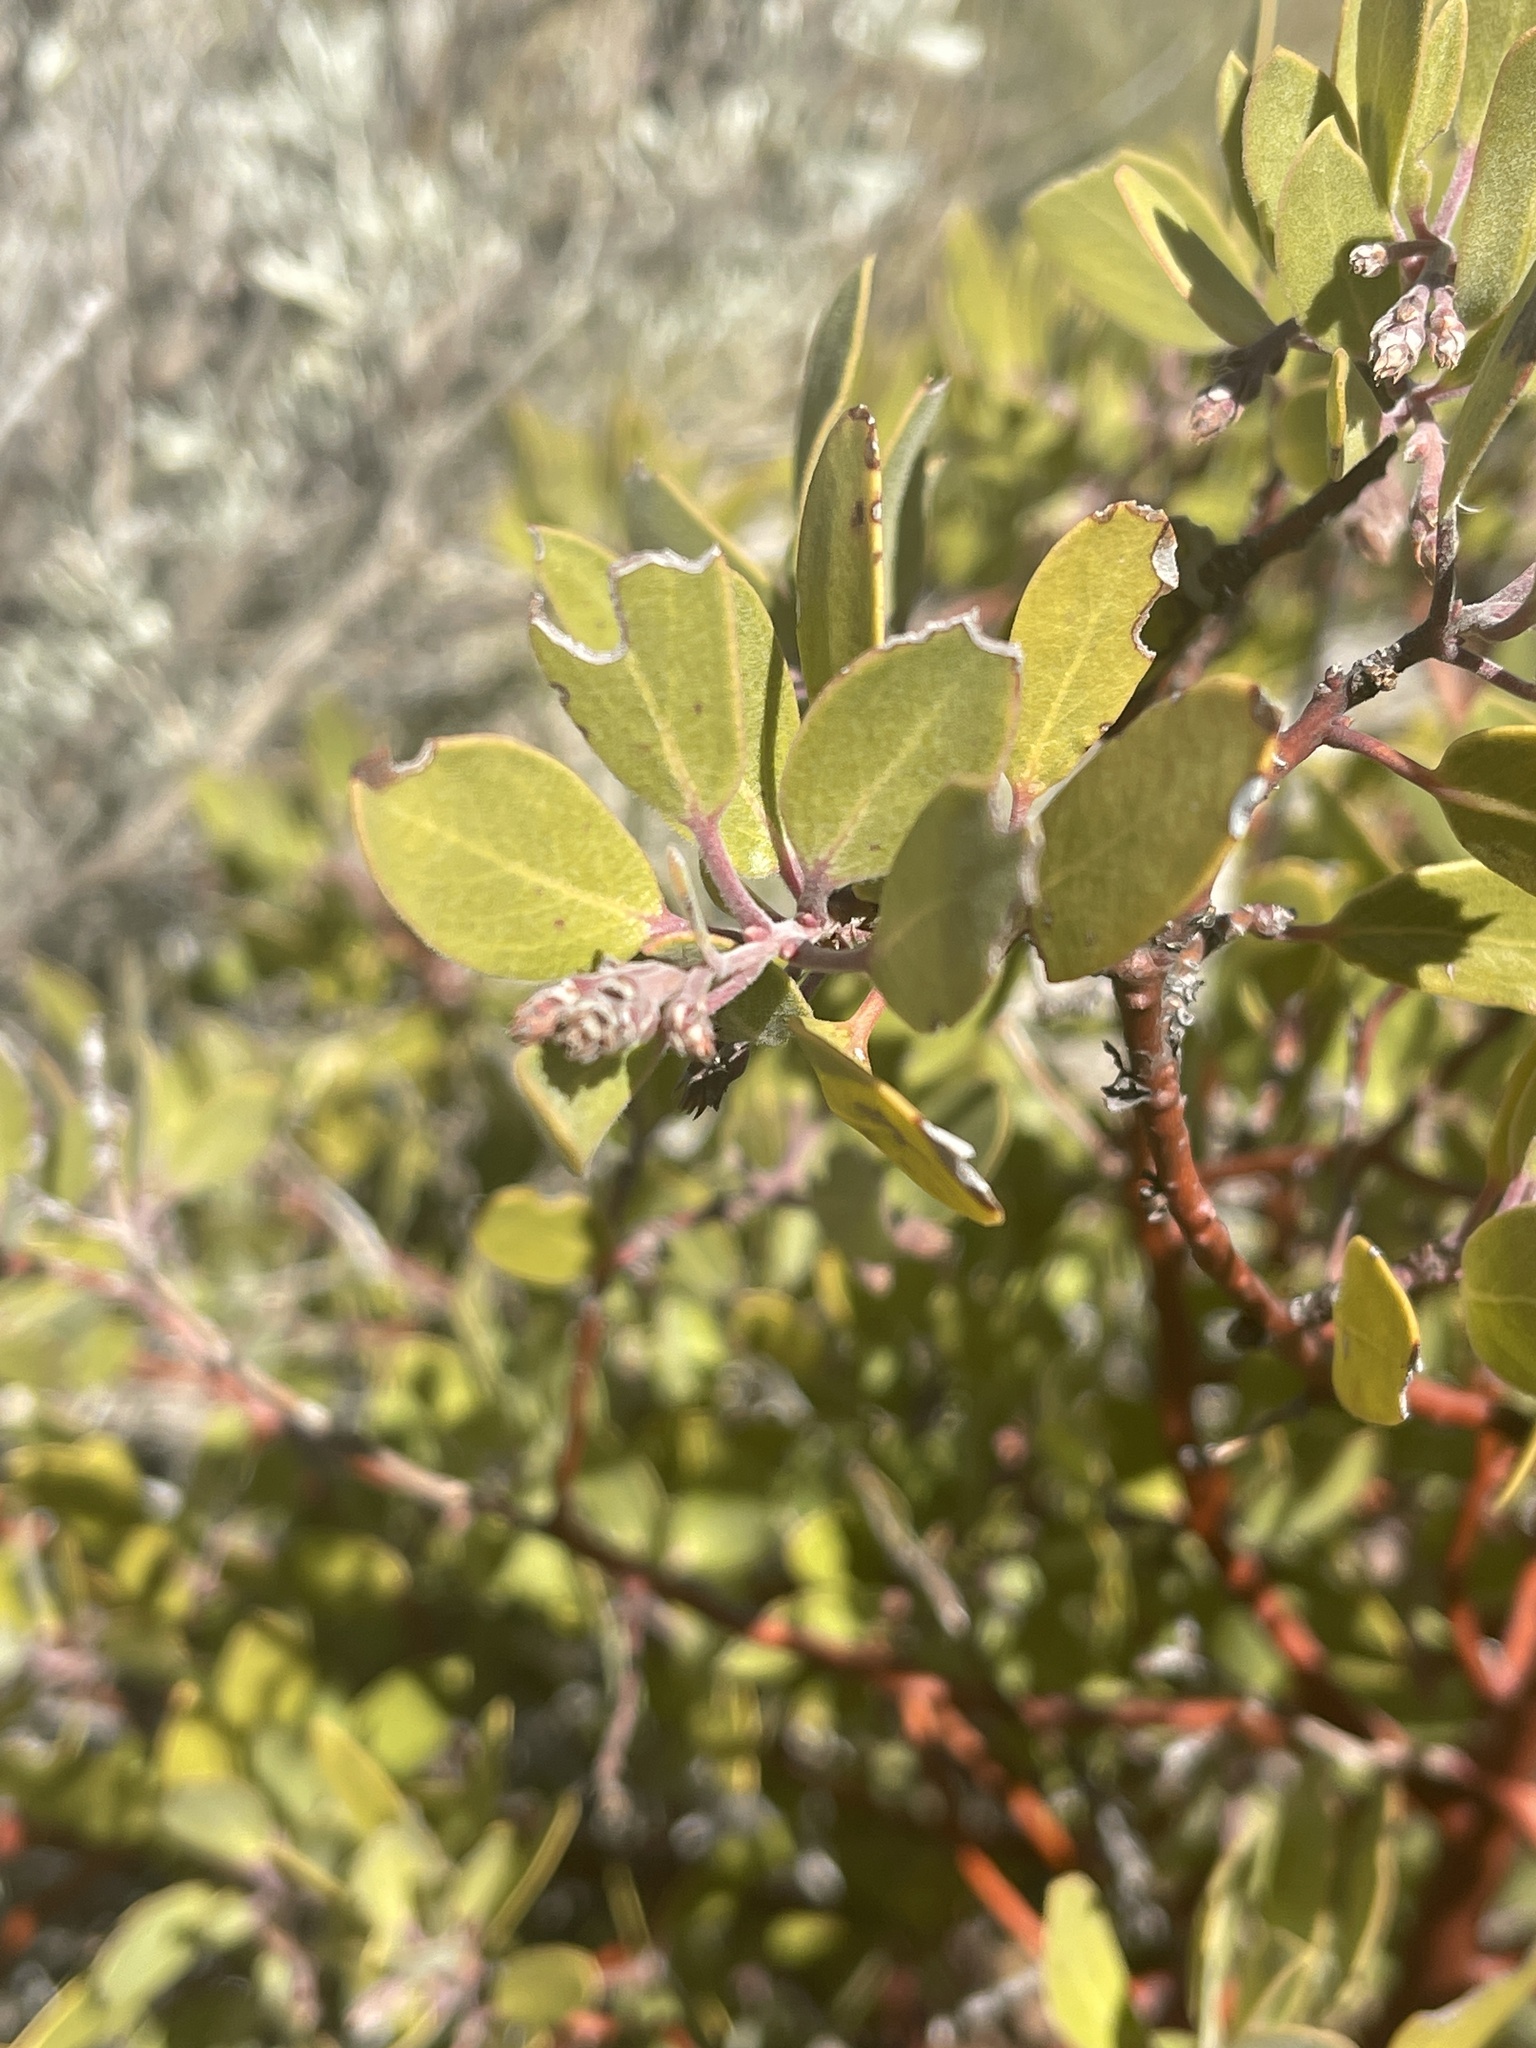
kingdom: Plantae
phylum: Tracheophyta
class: Magnoliopsida
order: Ericales
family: Ericaceae
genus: Arctostaphylos
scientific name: Arctostaphylos parryana
